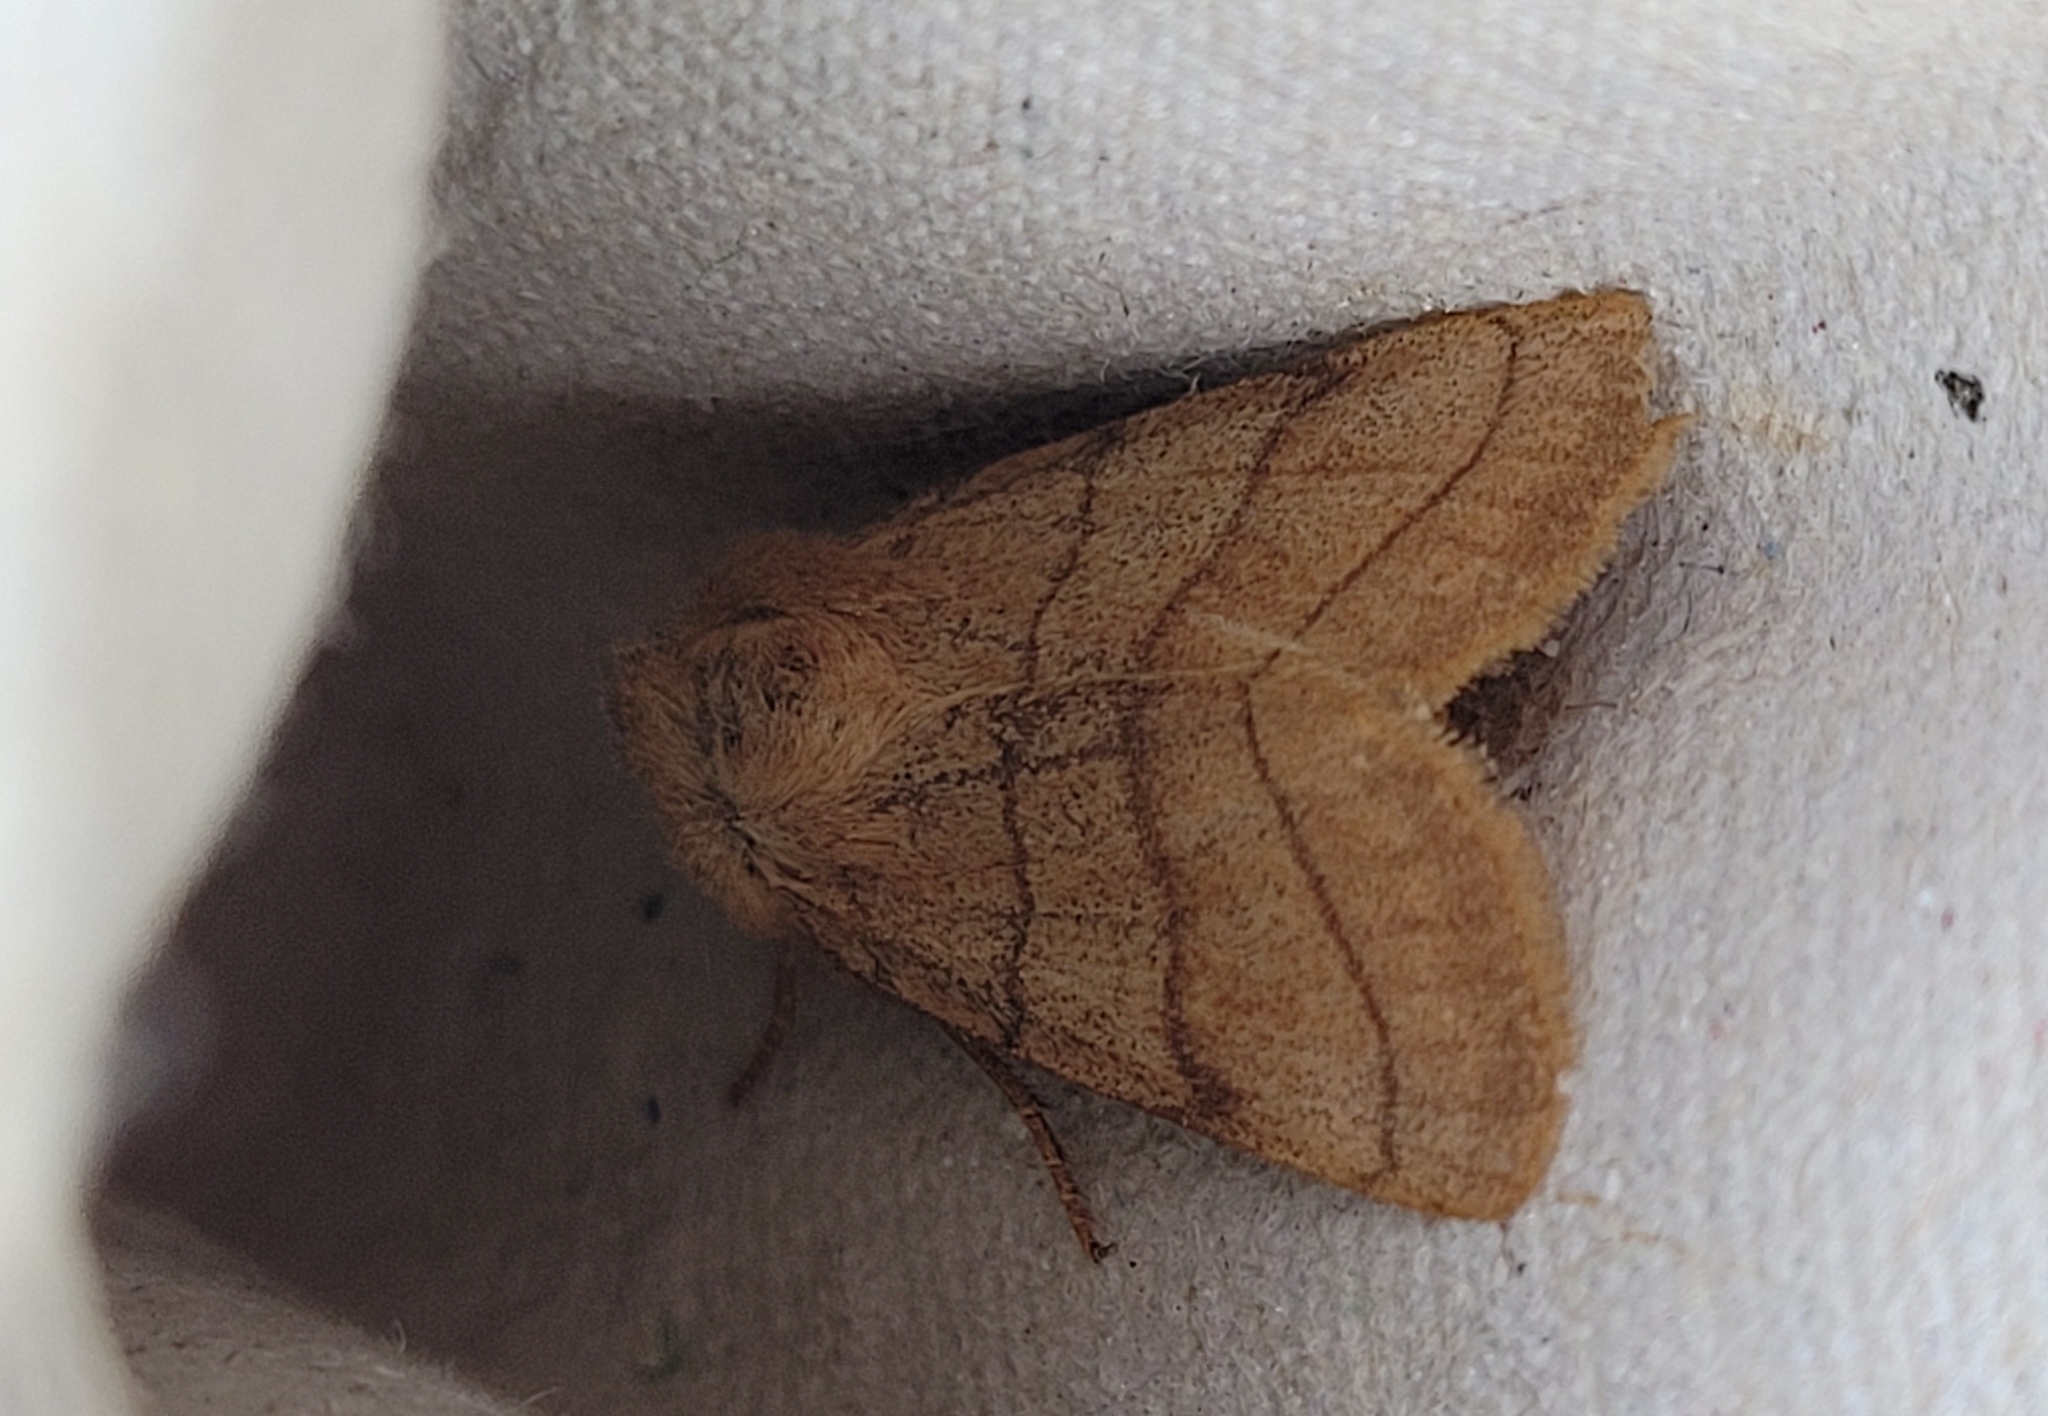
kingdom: Animalia
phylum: Arthropoda
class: Insecta
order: Lepidoptera
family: Noctuidae
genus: Charanyca
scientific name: Charanyca trigrammica
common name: Treble lines
